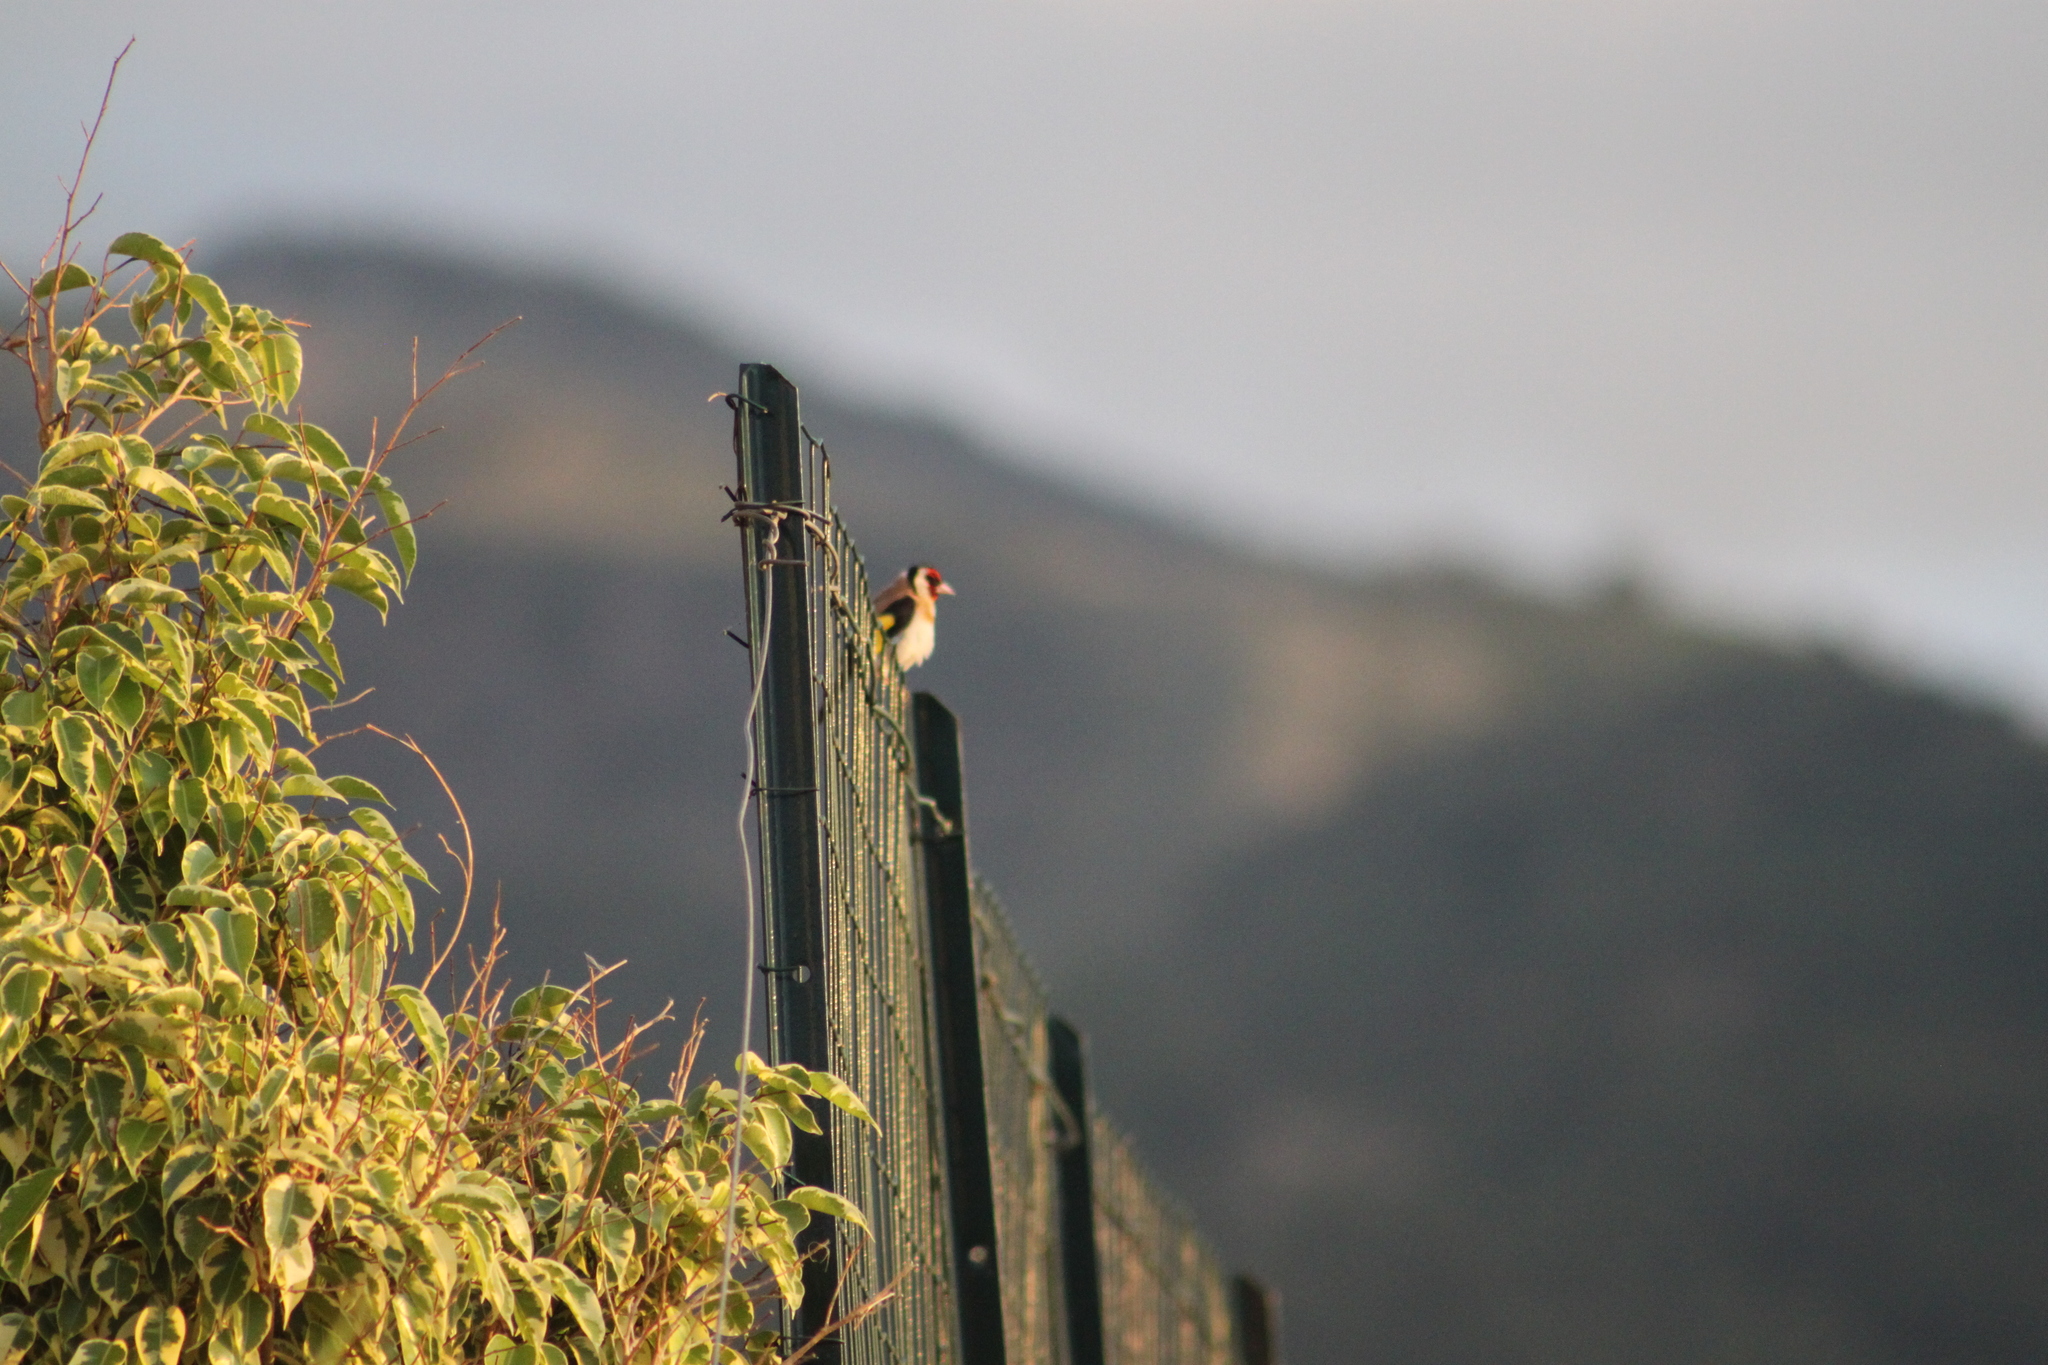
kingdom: Animalia
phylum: Chordata
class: Aves
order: Passeriformes
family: Fringillidae
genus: Carduelis
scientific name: Carduelis carduelis
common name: European goldfinch
